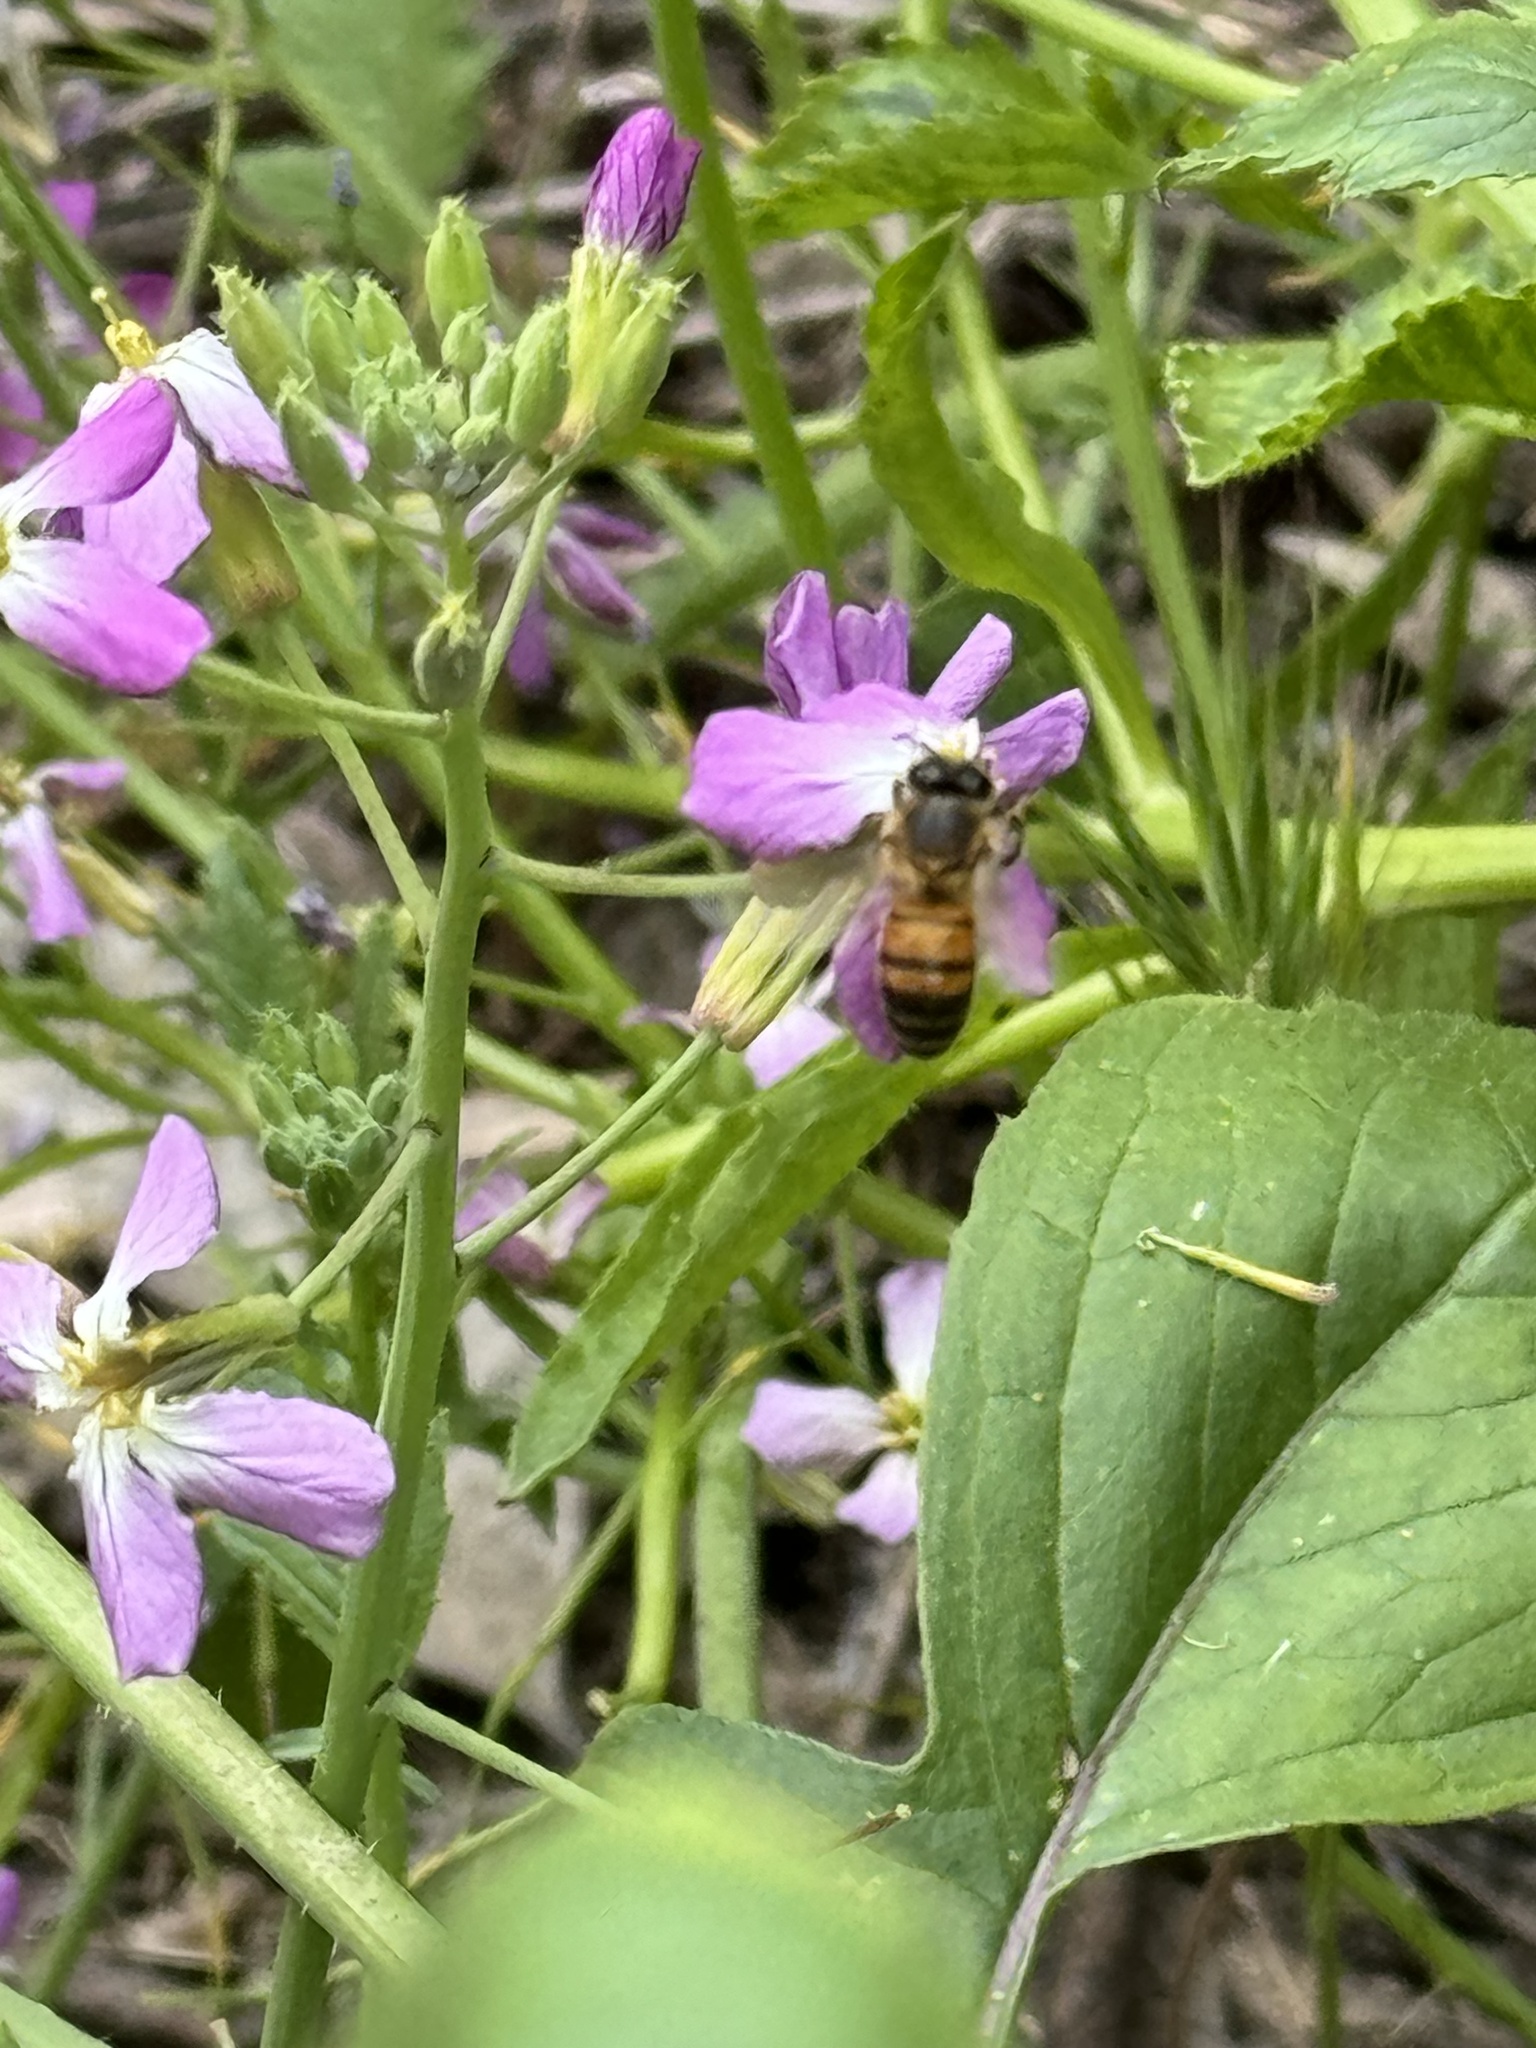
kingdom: Animalia
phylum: Arthropoda
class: Insecta
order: Hymenoptera
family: Apidae
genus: Apis
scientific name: Apis mellifera
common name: Honey bee
